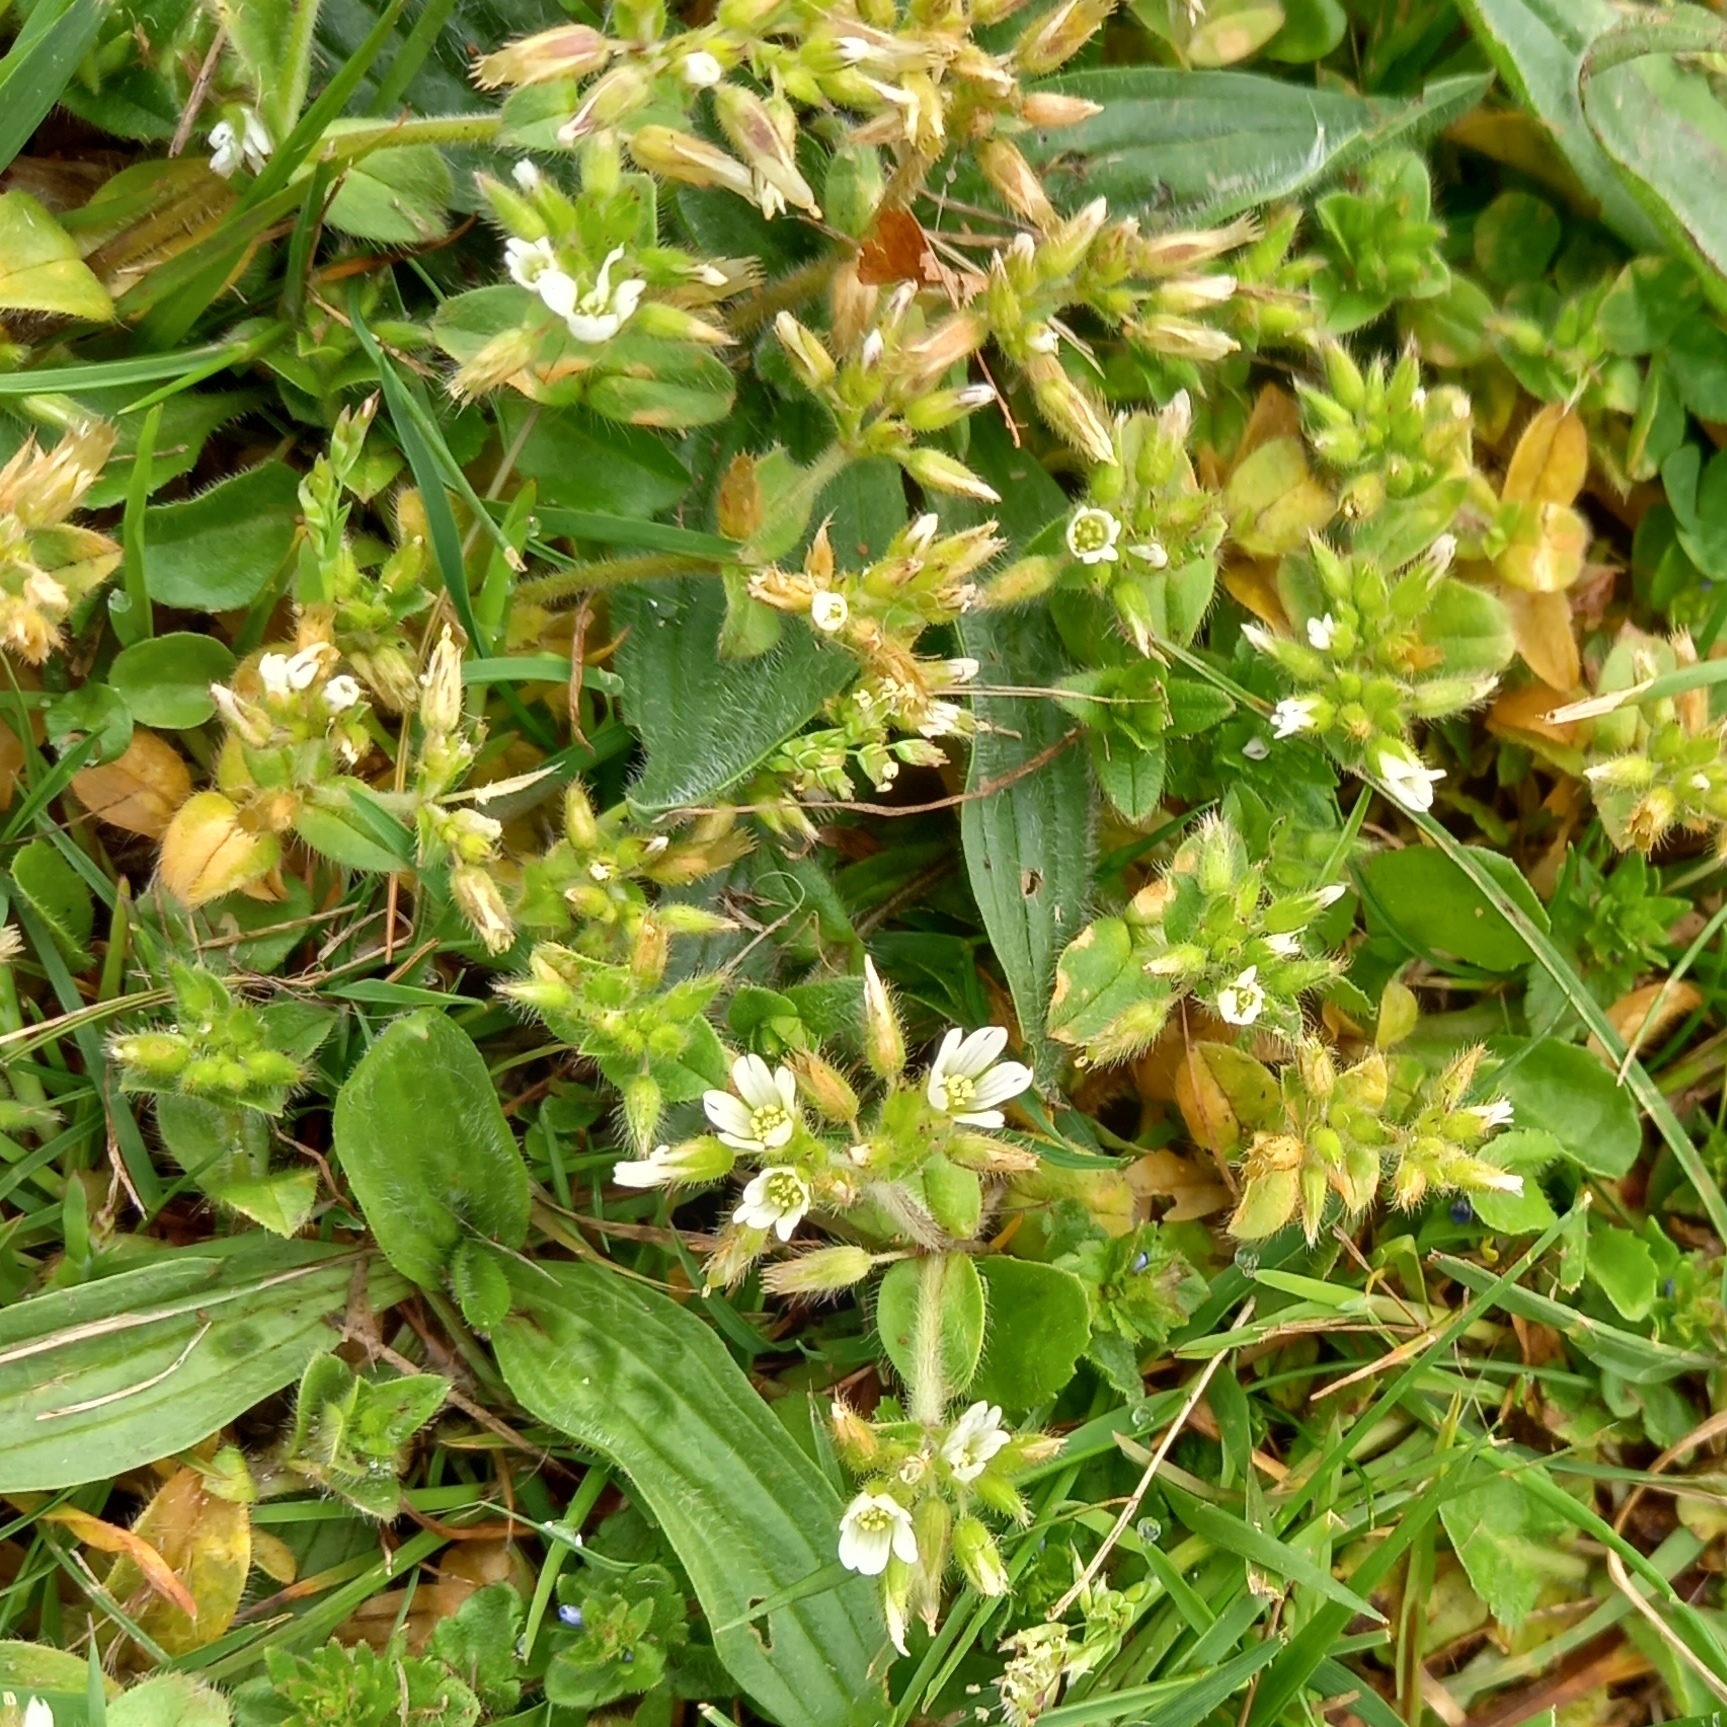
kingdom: Plantae
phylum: Tracheophyta
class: Magnoliopsida
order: Caryophyllales
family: Caryophyllaceae
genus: Cerastium
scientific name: Cerastium glomeratum
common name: Sticky chickweed
